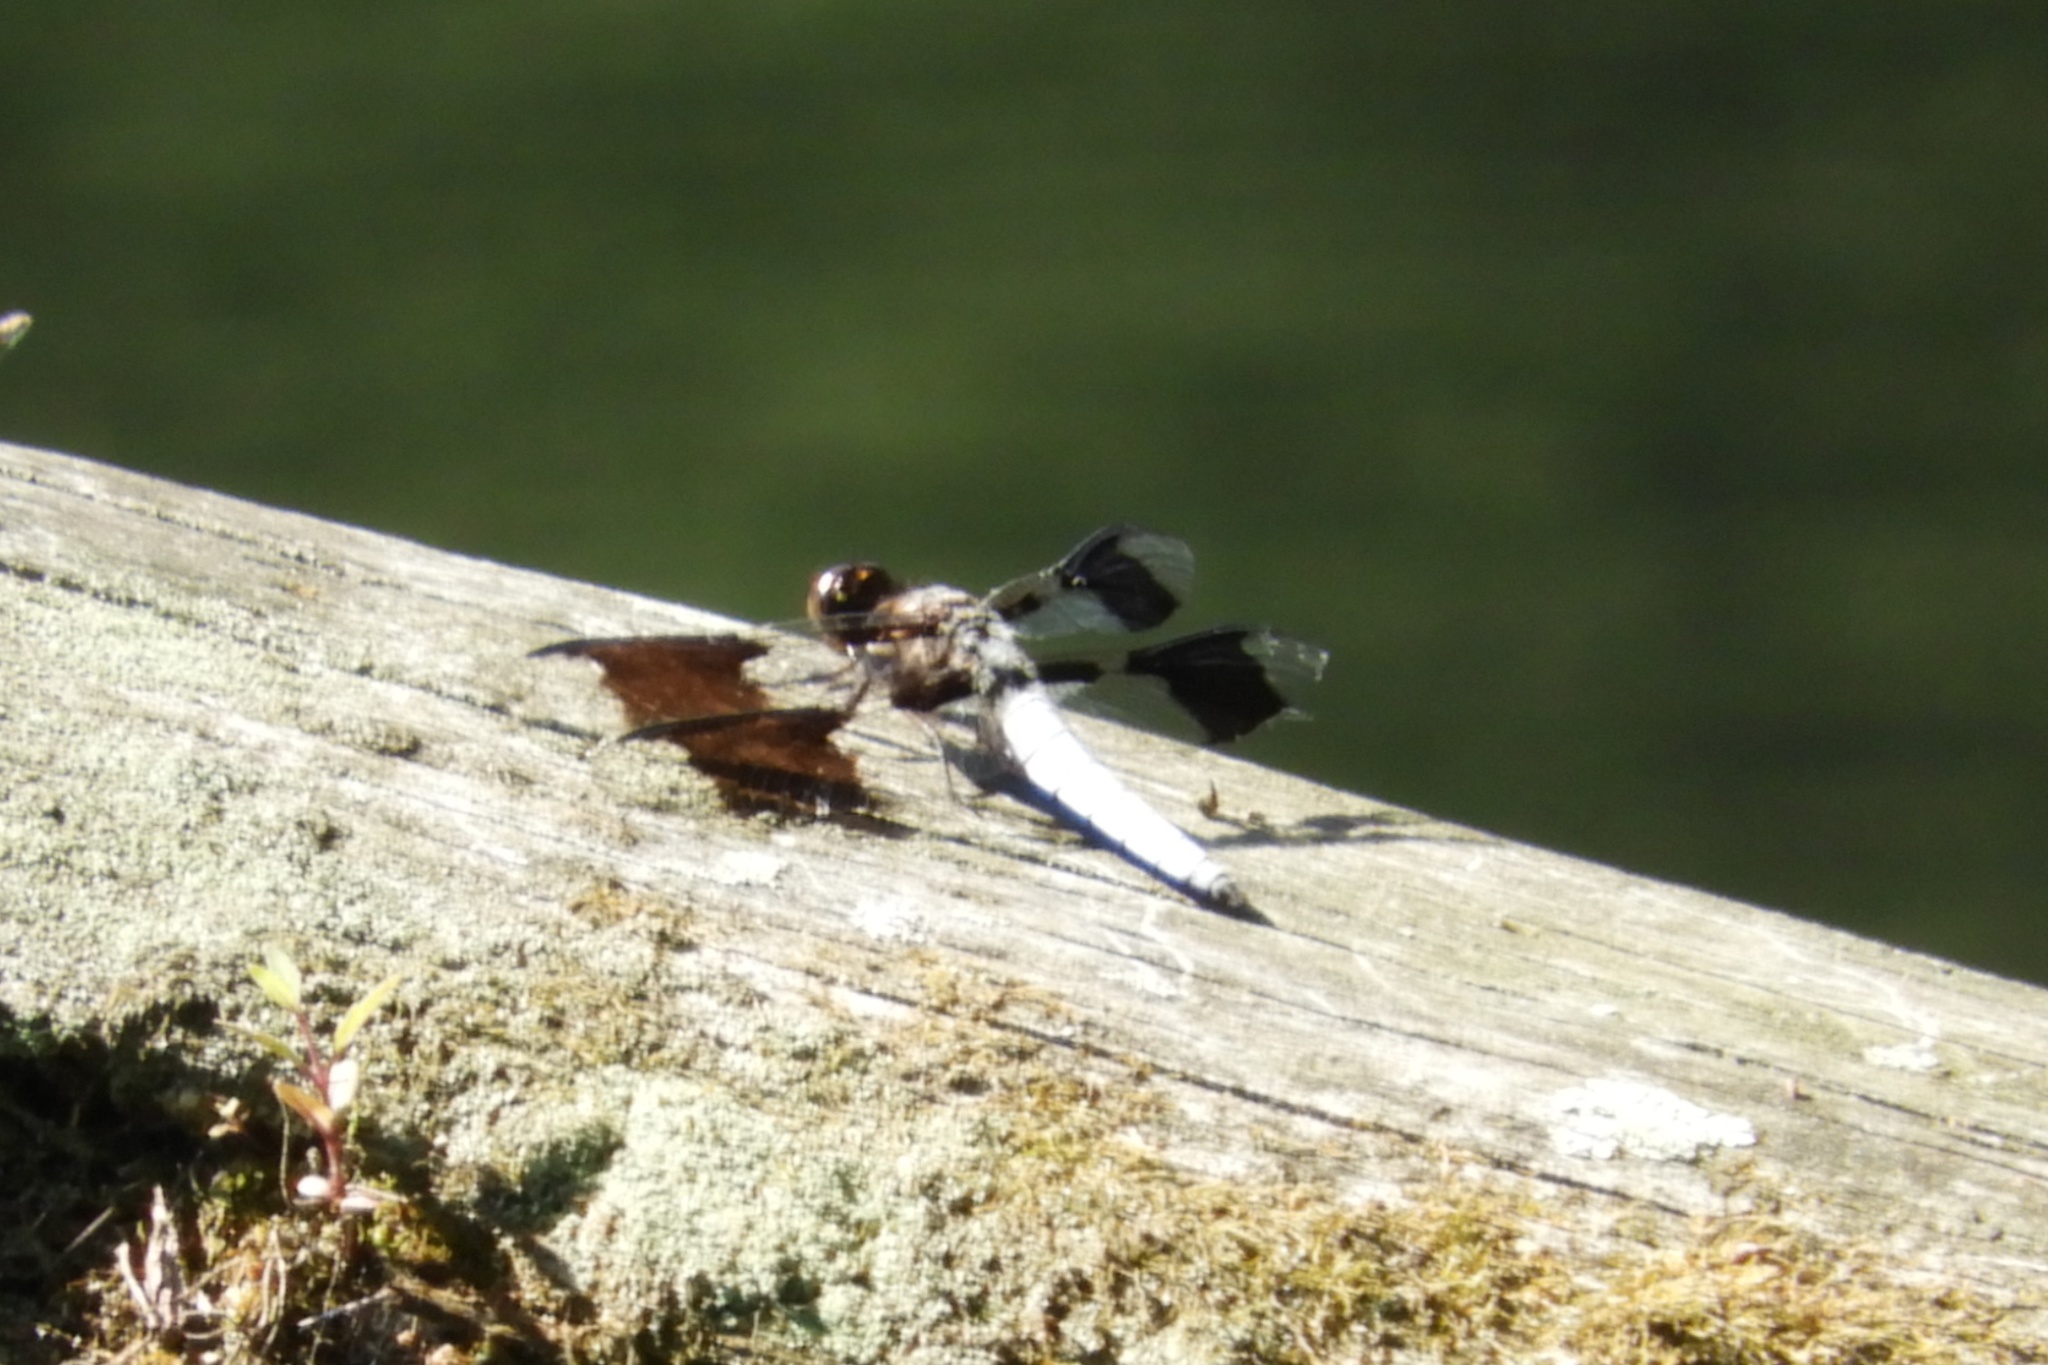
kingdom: Animalia
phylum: Arthropoda
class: Insecta
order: Odonata
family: Libellulidae
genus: Plathemis
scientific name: Plathemis lydia
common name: Common whitetail
